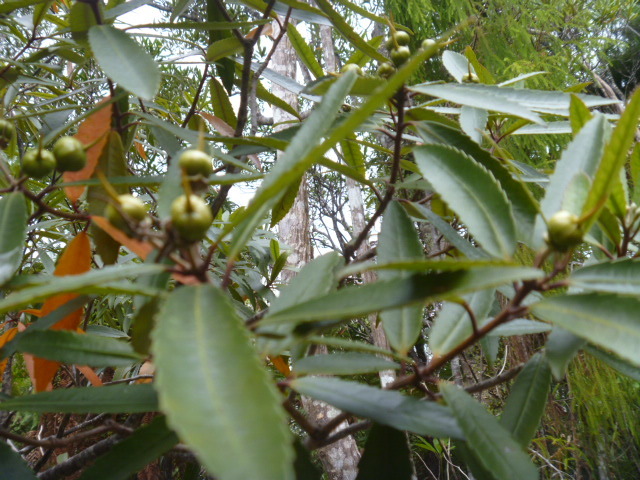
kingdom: Plantae
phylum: Tracheophyta
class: Magnoliopsida
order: Crossosomatales
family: Ixerbaceae
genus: Ixerba
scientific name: Ixerba brexioides
